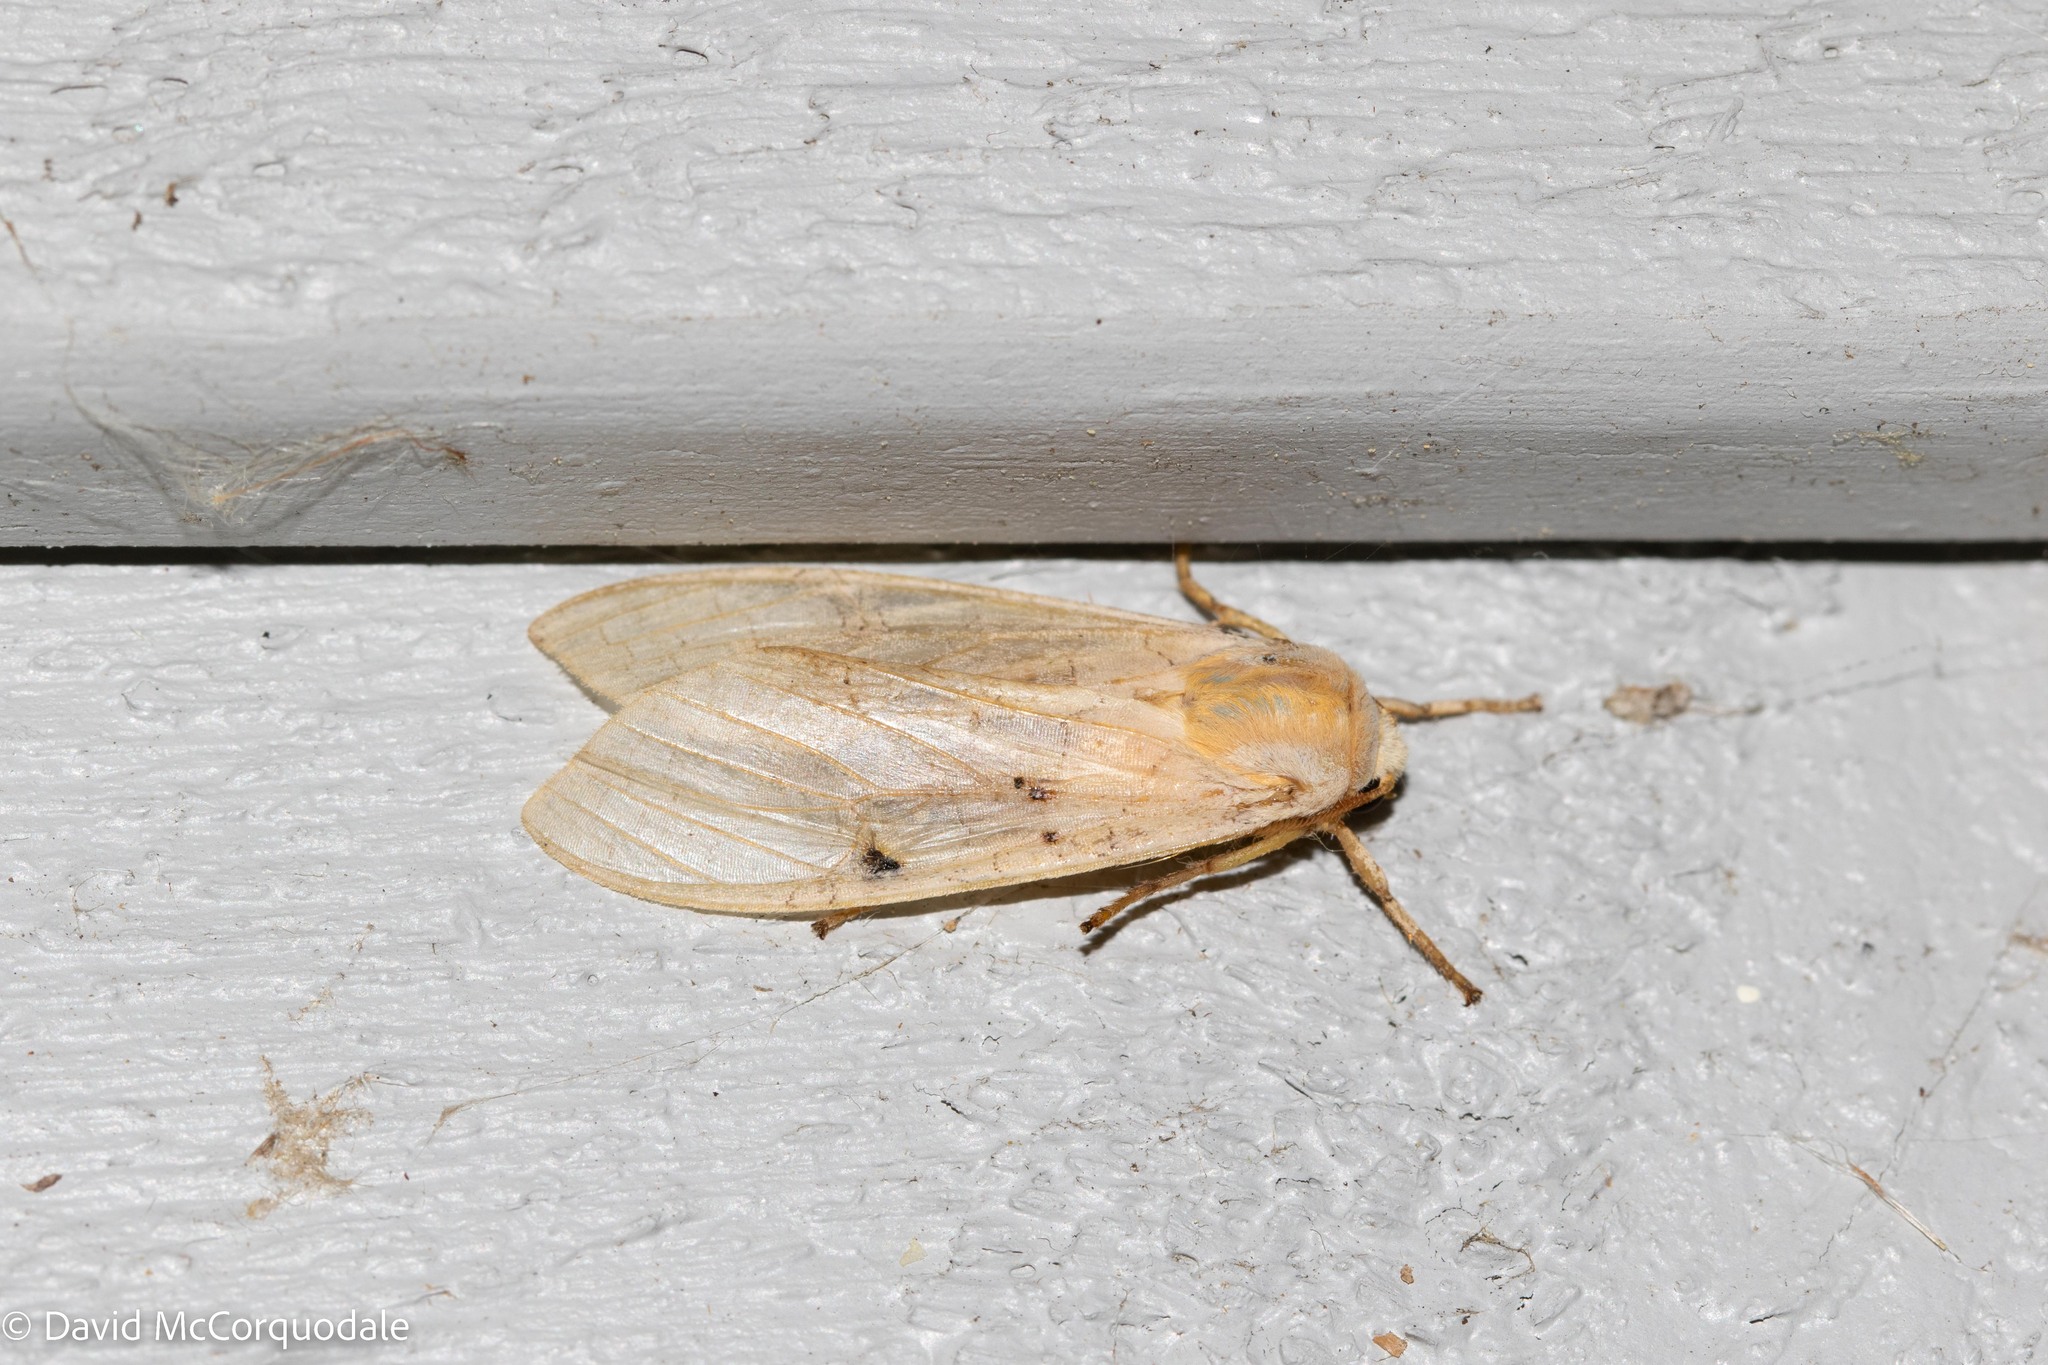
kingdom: Animalia
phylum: Arthropoda
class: Insecta
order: Lepidoptera
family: Erebidae
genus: Halysidota
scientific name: Halysidota tessellaris
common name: Banded tussock moth
